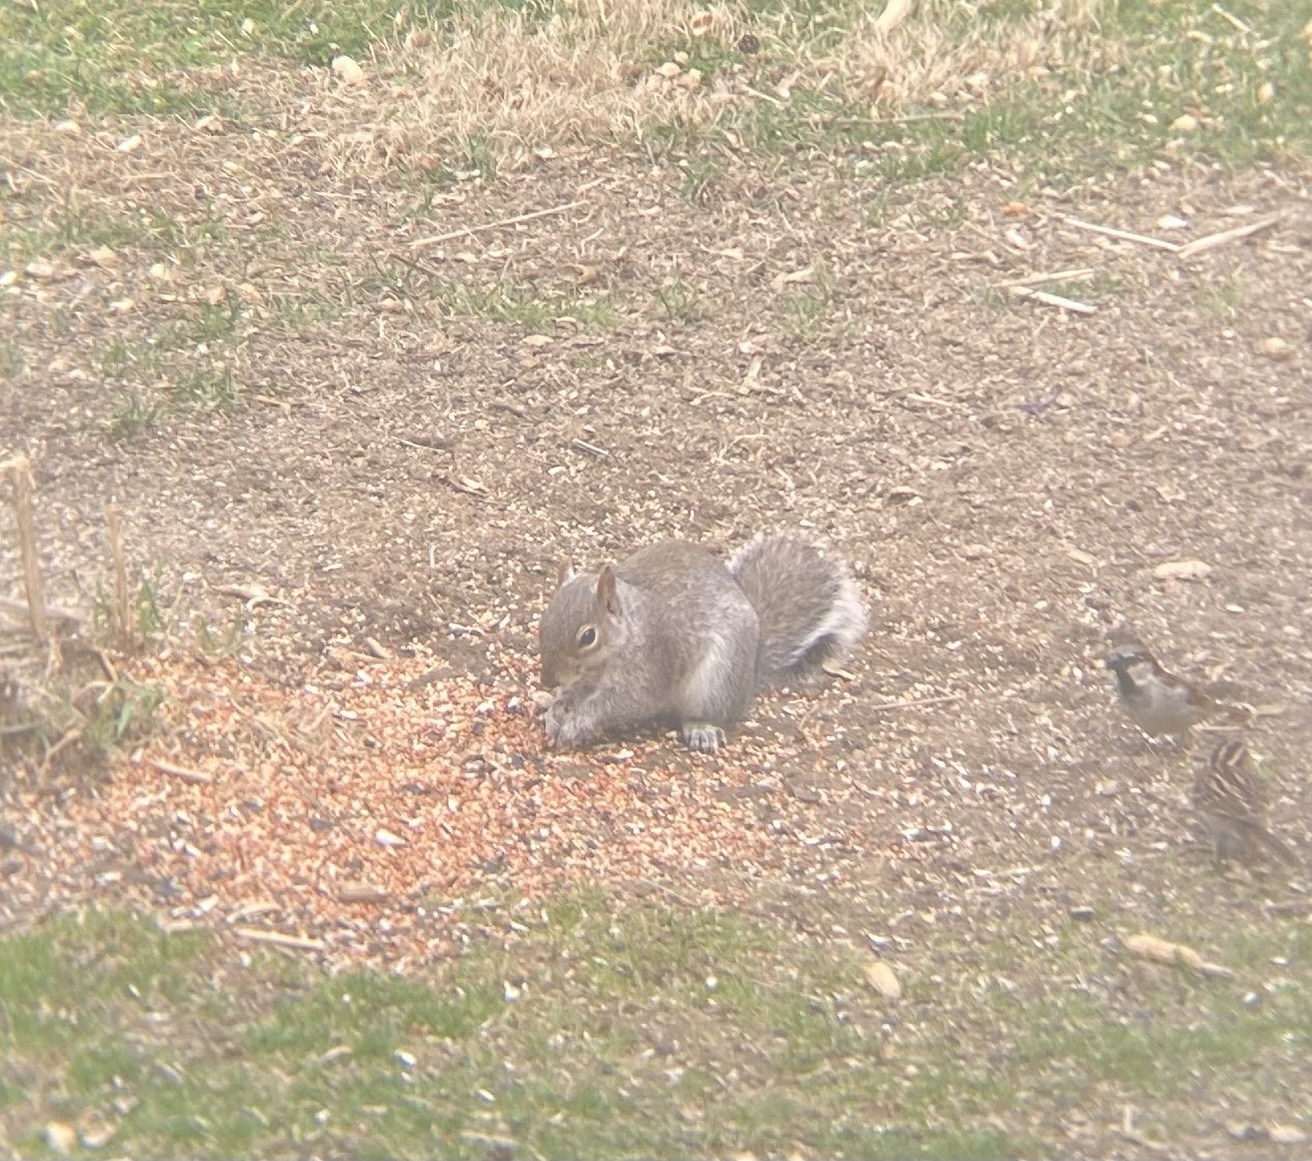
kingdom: Animalia
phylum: Chordata
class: Mammalia
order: Rodentia
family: Sciuridae
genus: Sciurus
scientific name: Sciurus carolinensis
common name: Eastern gray squirrel
